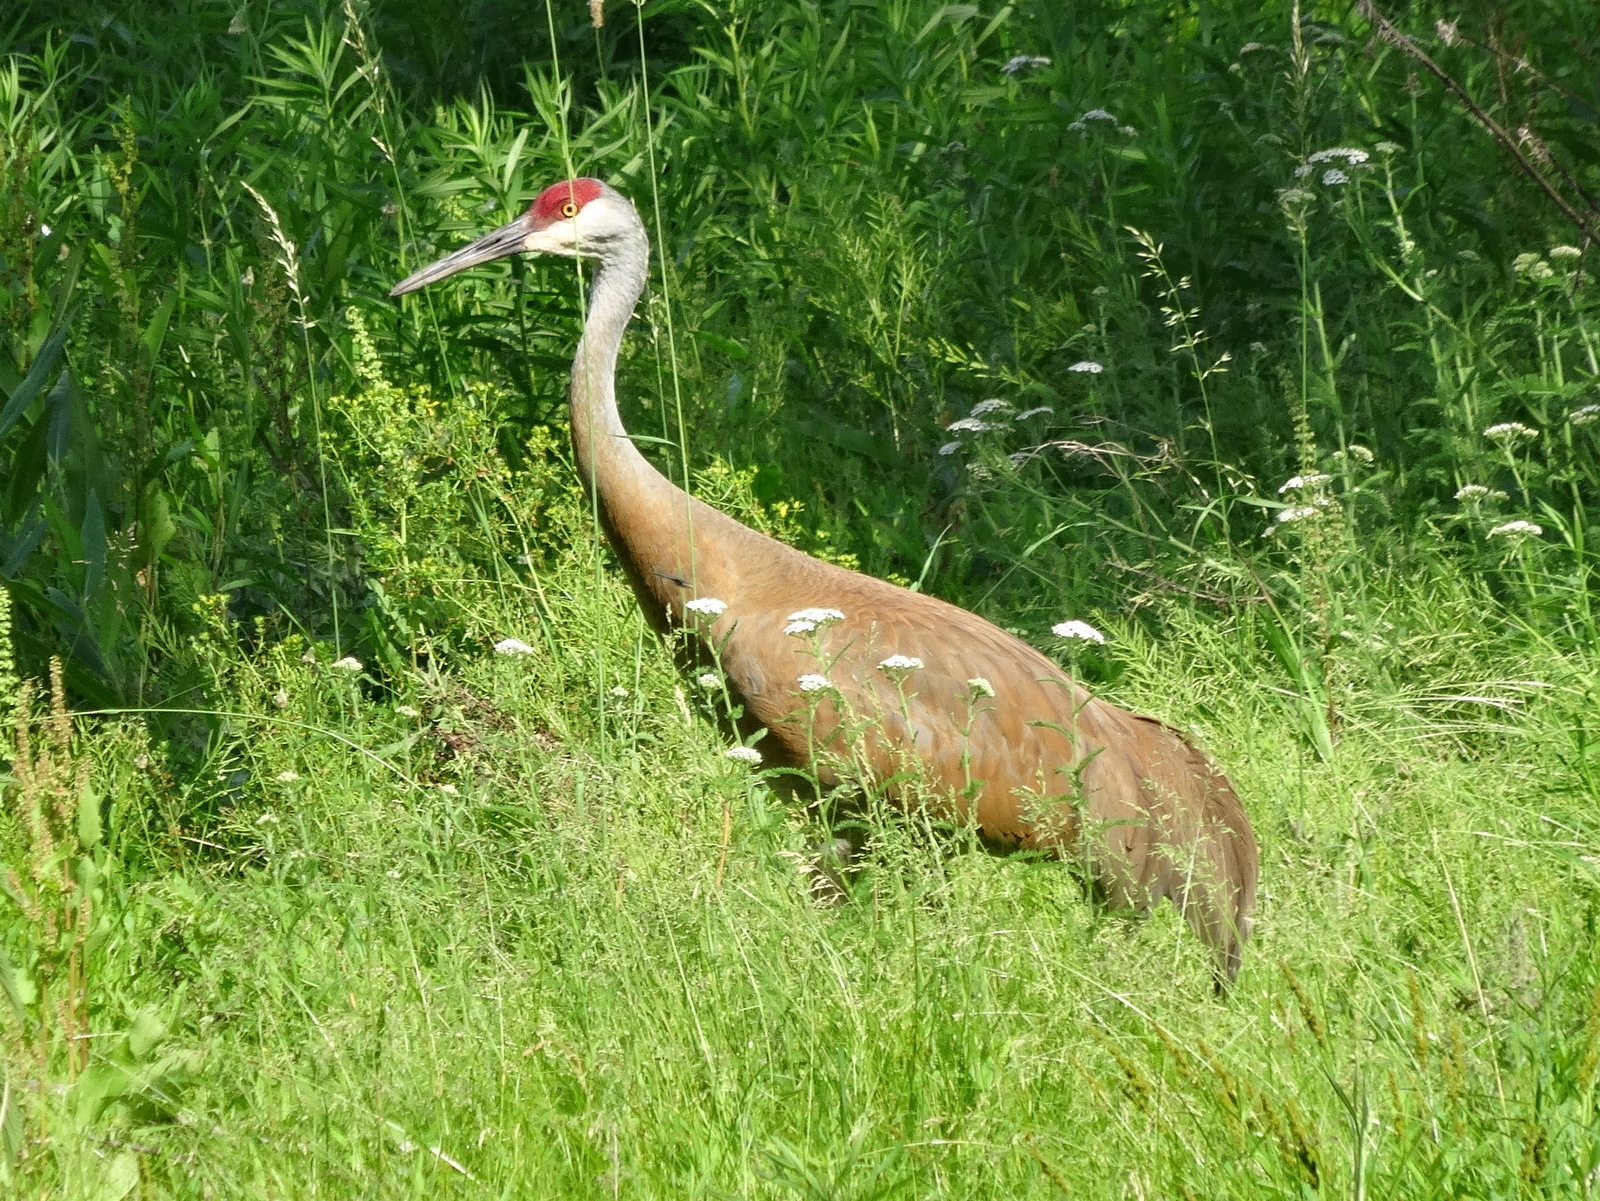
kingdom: Animalia
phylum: Chordata
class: Aves
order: Gruiformes
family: Gruidae
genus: Grus
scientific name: Grus canadensis
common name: Sandhill crane
